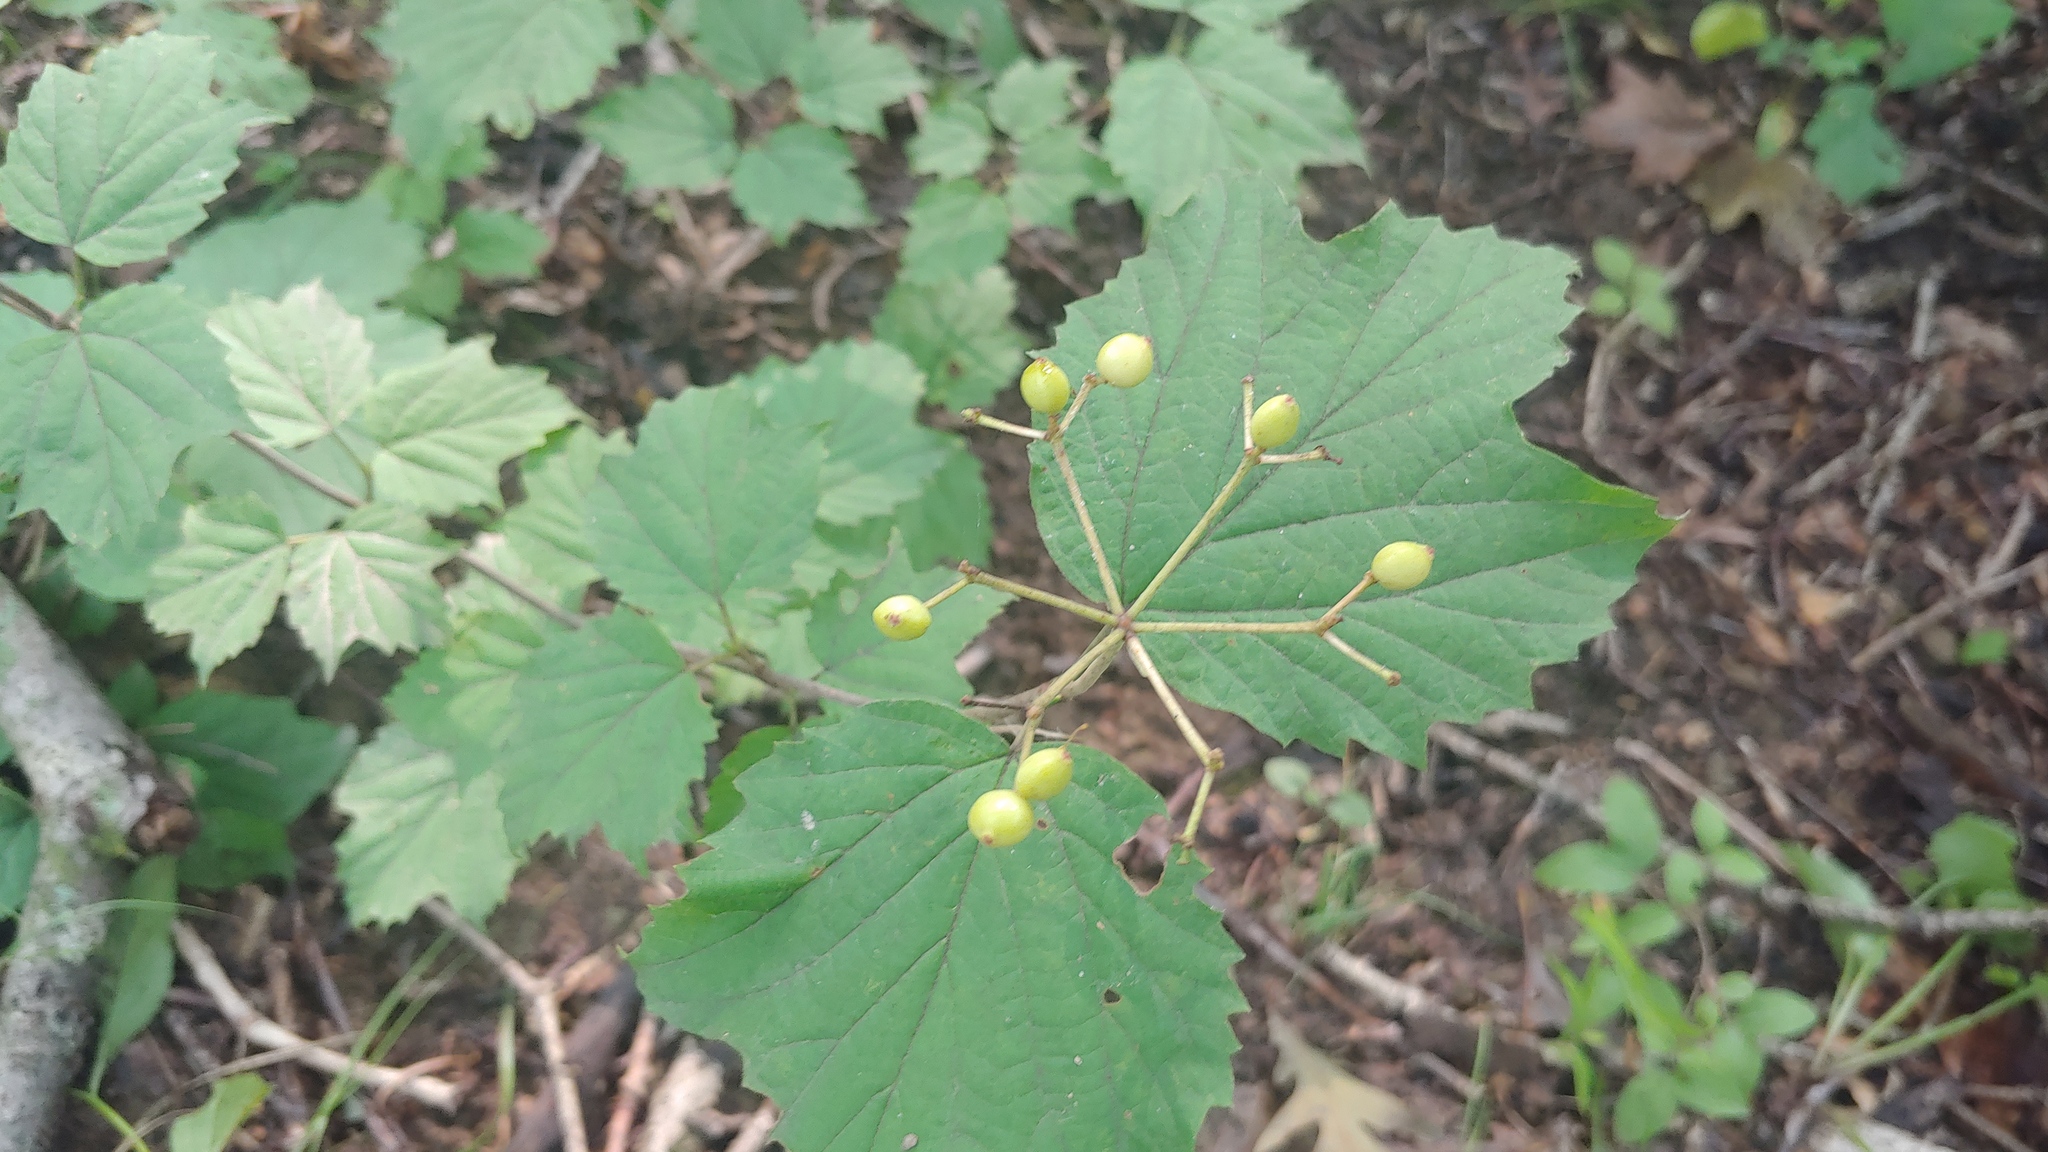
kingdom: Plantae
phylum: Tracheophyta
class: Magnoliopsida
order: Dipsacales
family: Viburnaceae
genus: Viburnum
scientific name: Viburnum acerifolium
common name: Dockmackie
